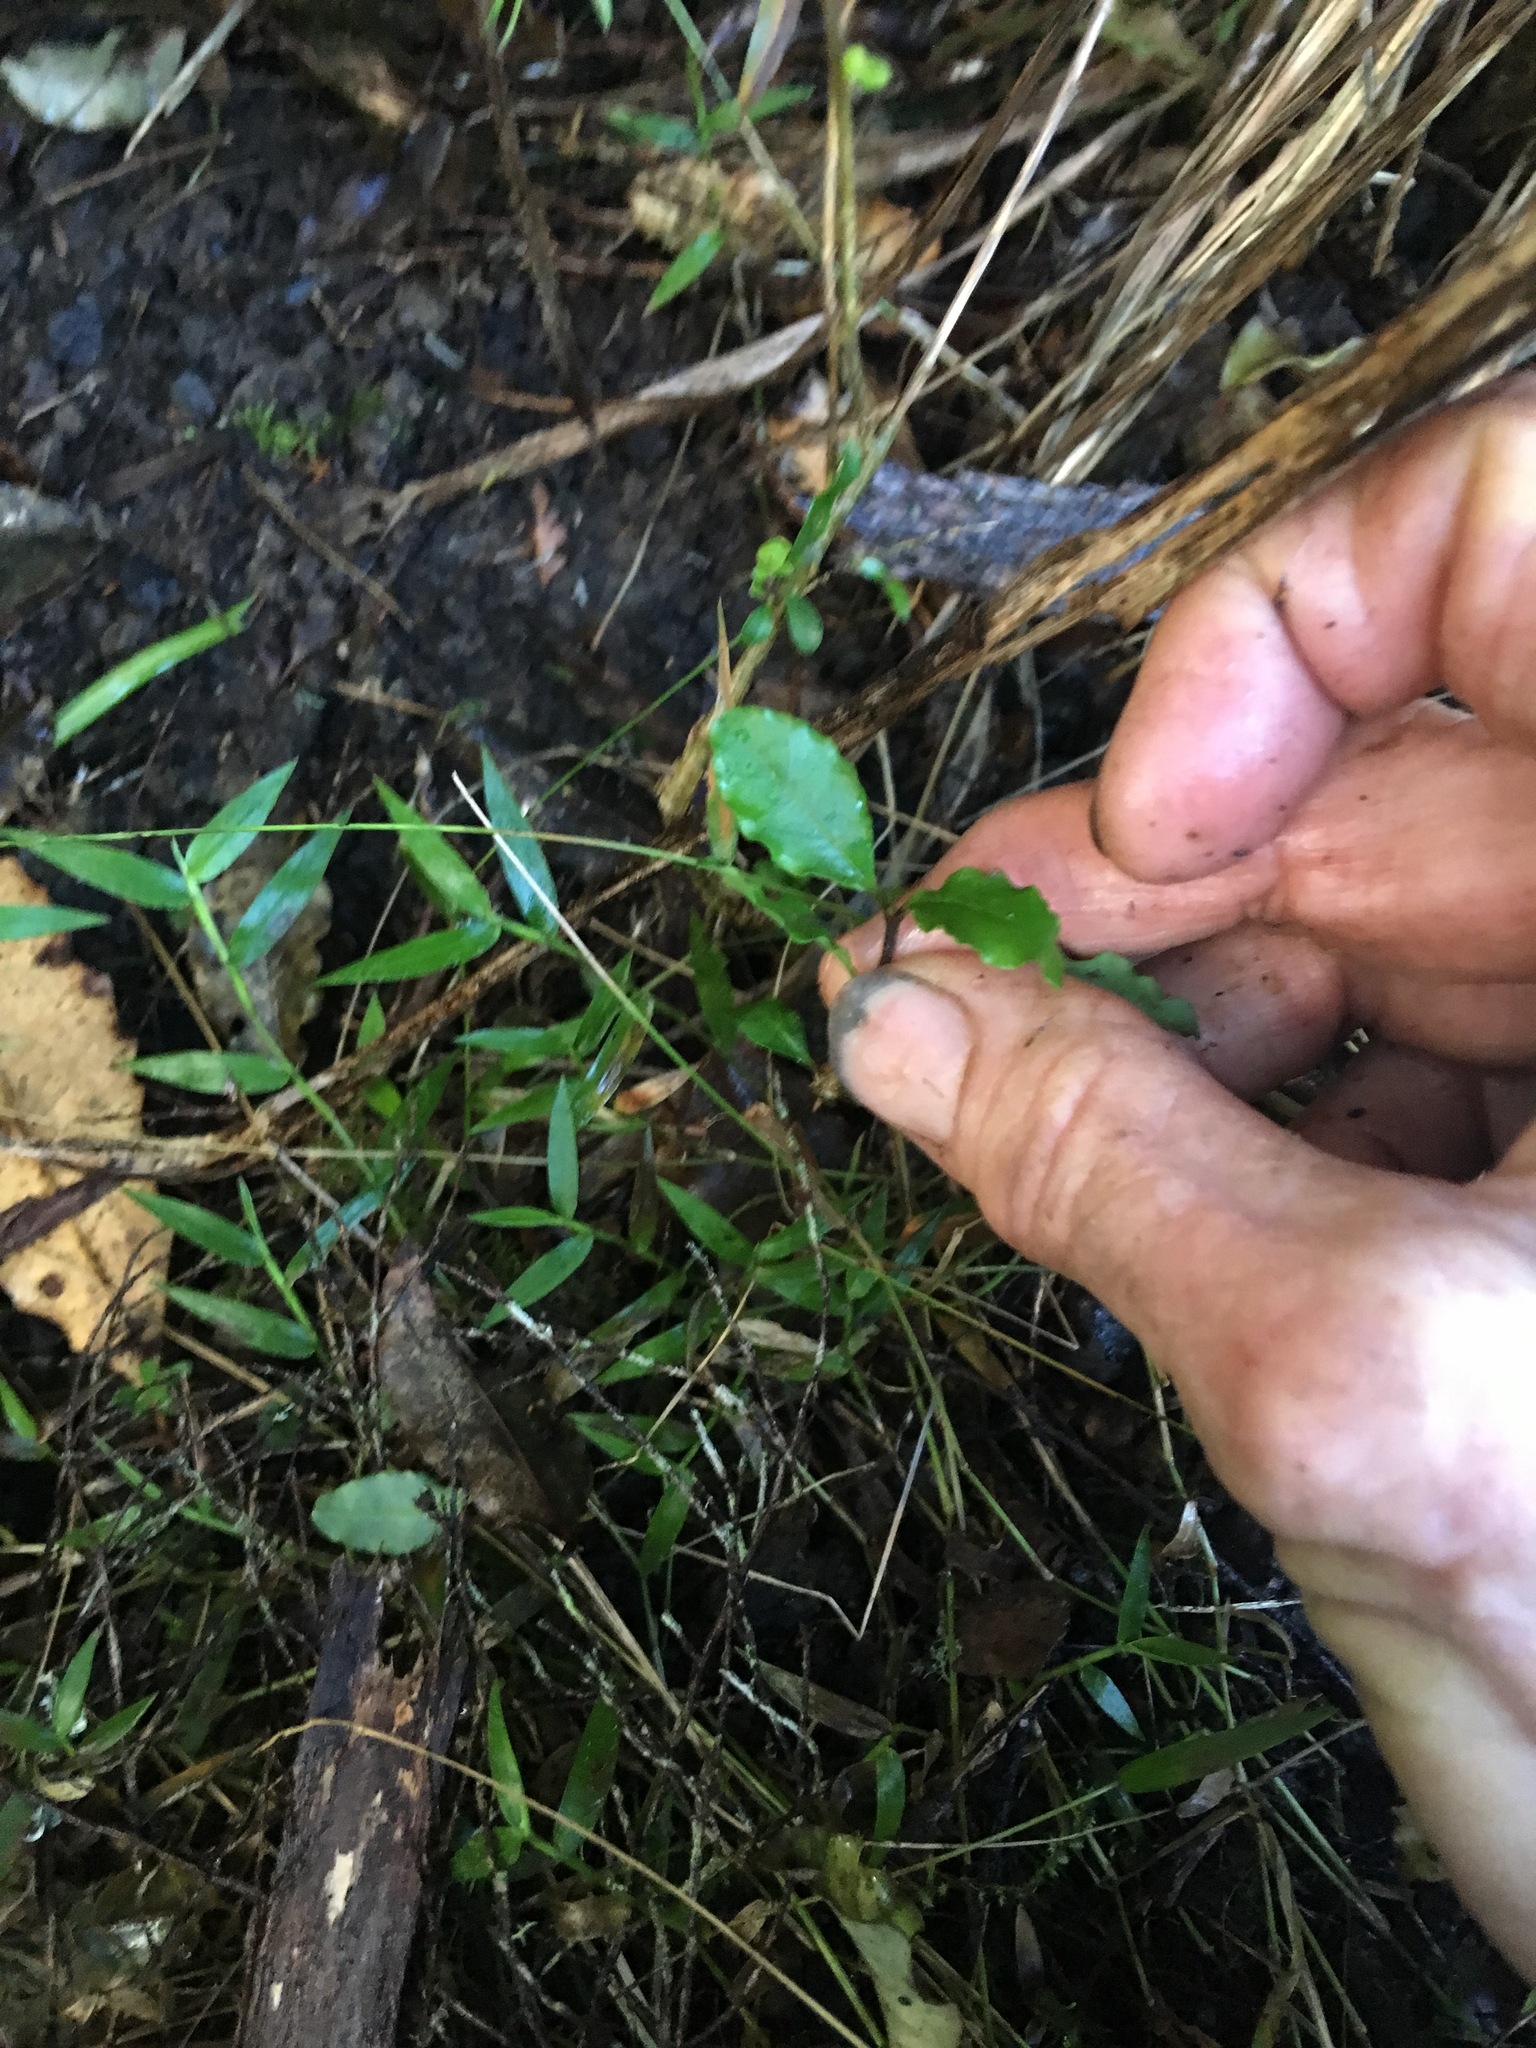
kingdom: Plantae
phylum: Tracheophyta
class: Magnoliopsida
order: Lamiales
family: Oleaceae
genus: Ligustrum
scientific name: Ligustrum sinense
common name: Chinese privet
